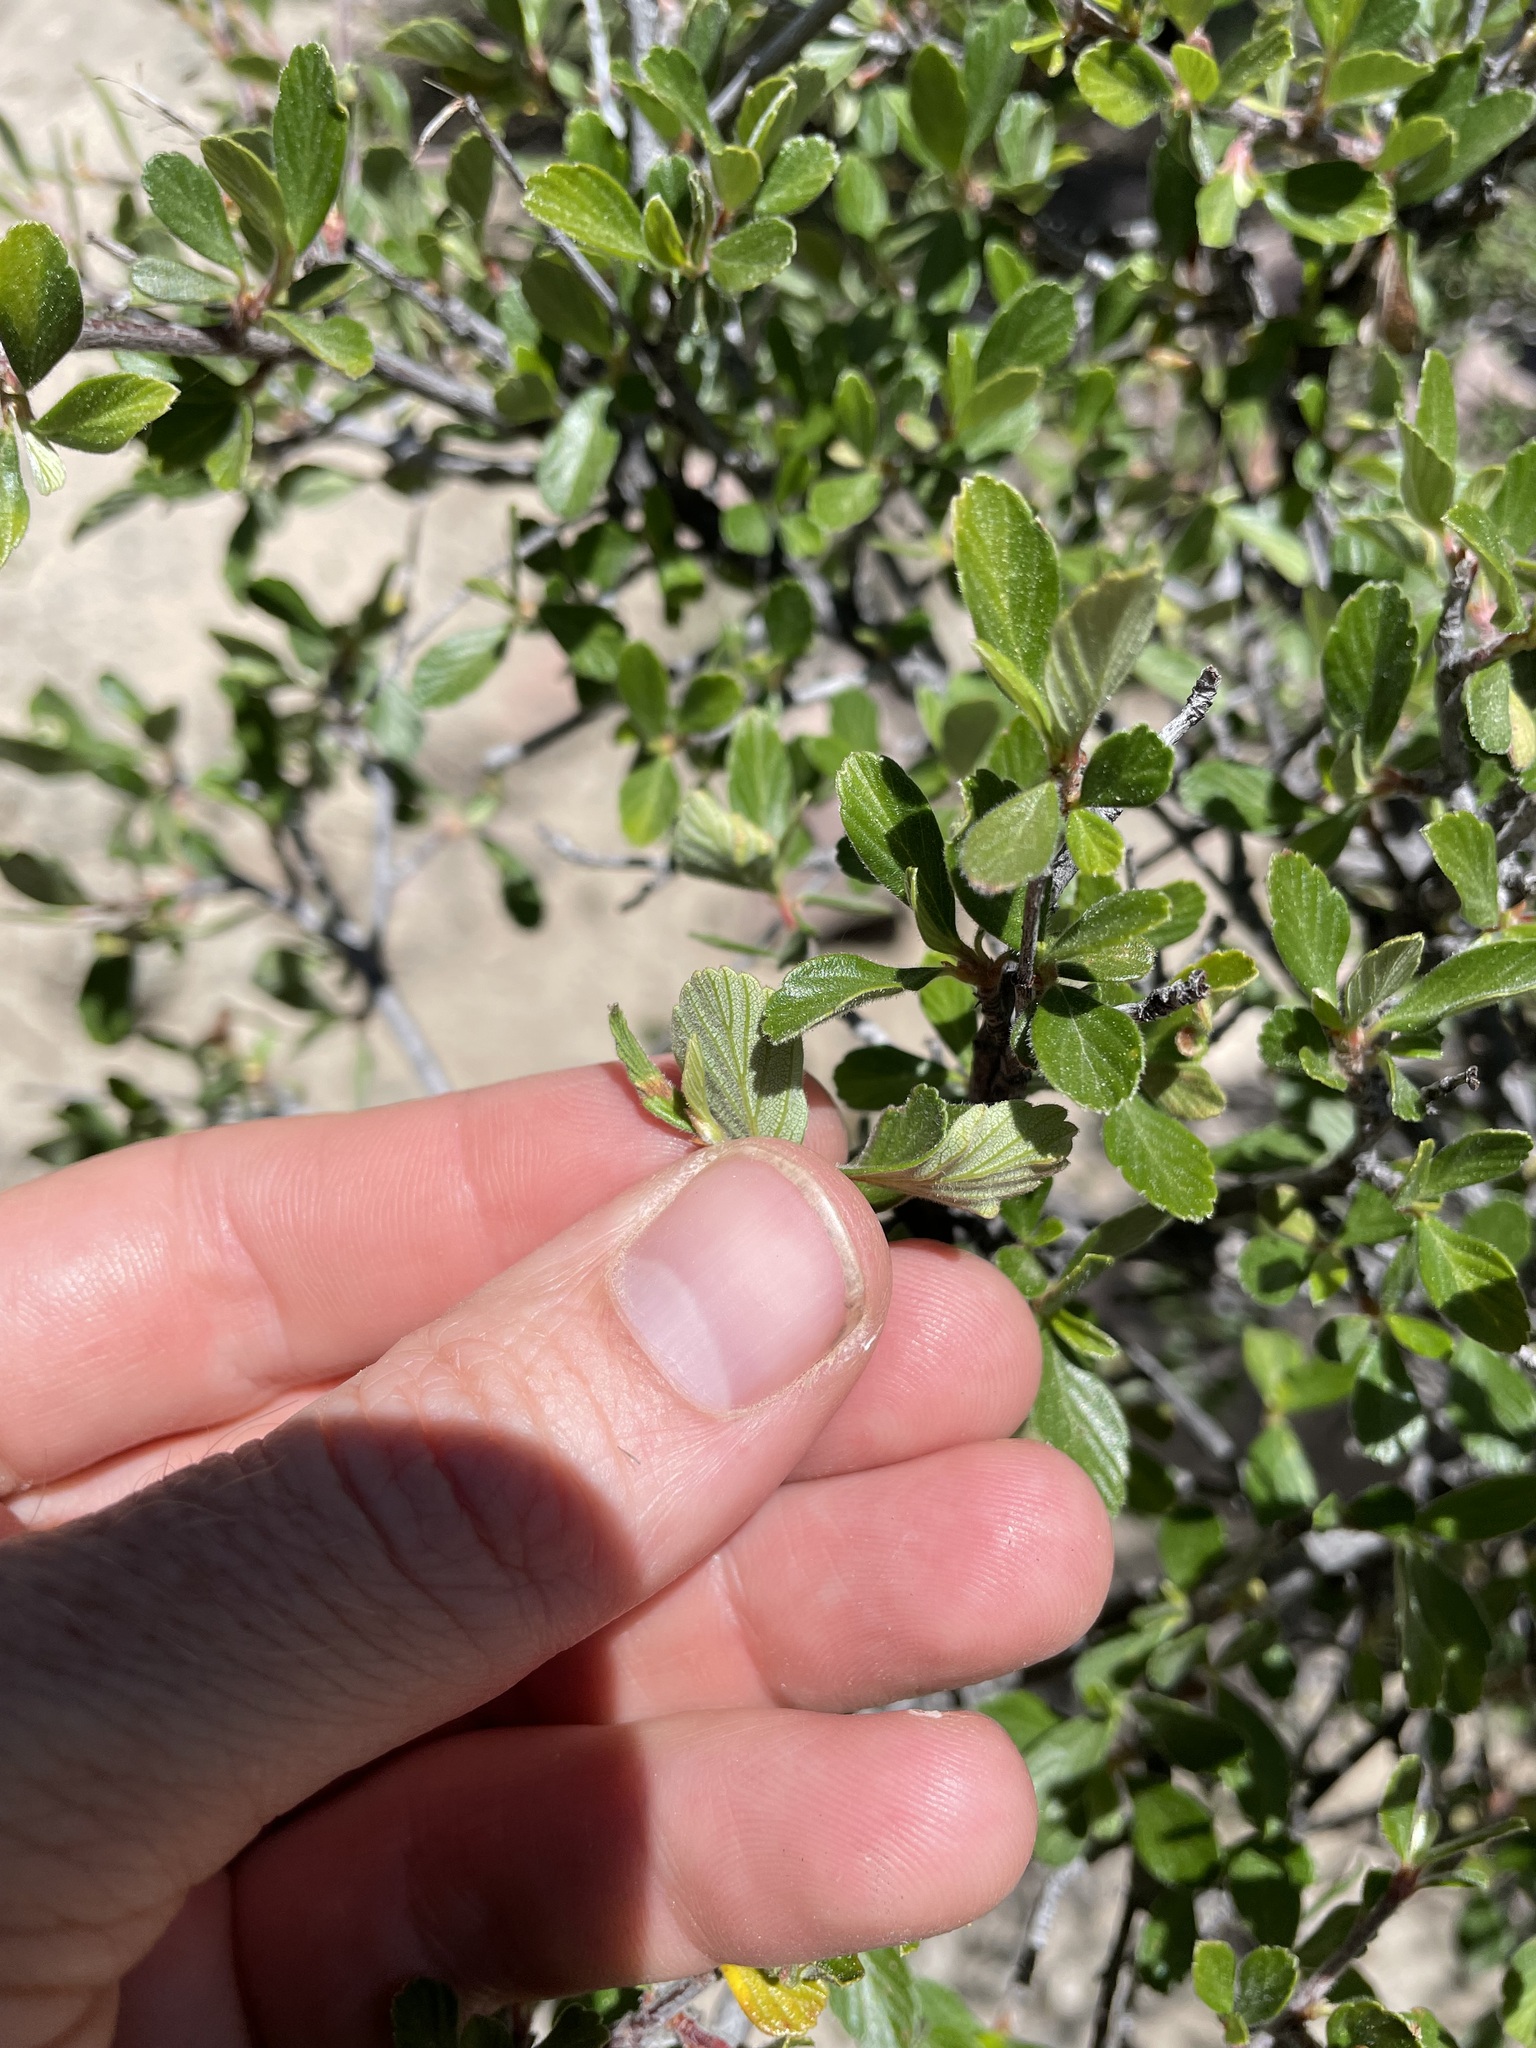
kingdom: Plantae
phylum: Tracheophyta
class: Magnoliopsida
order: Rosales
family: Rosaceae
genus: Cercocarpus
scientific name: Cercocarpus montanus
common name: Alder-leaf cercocarpus
